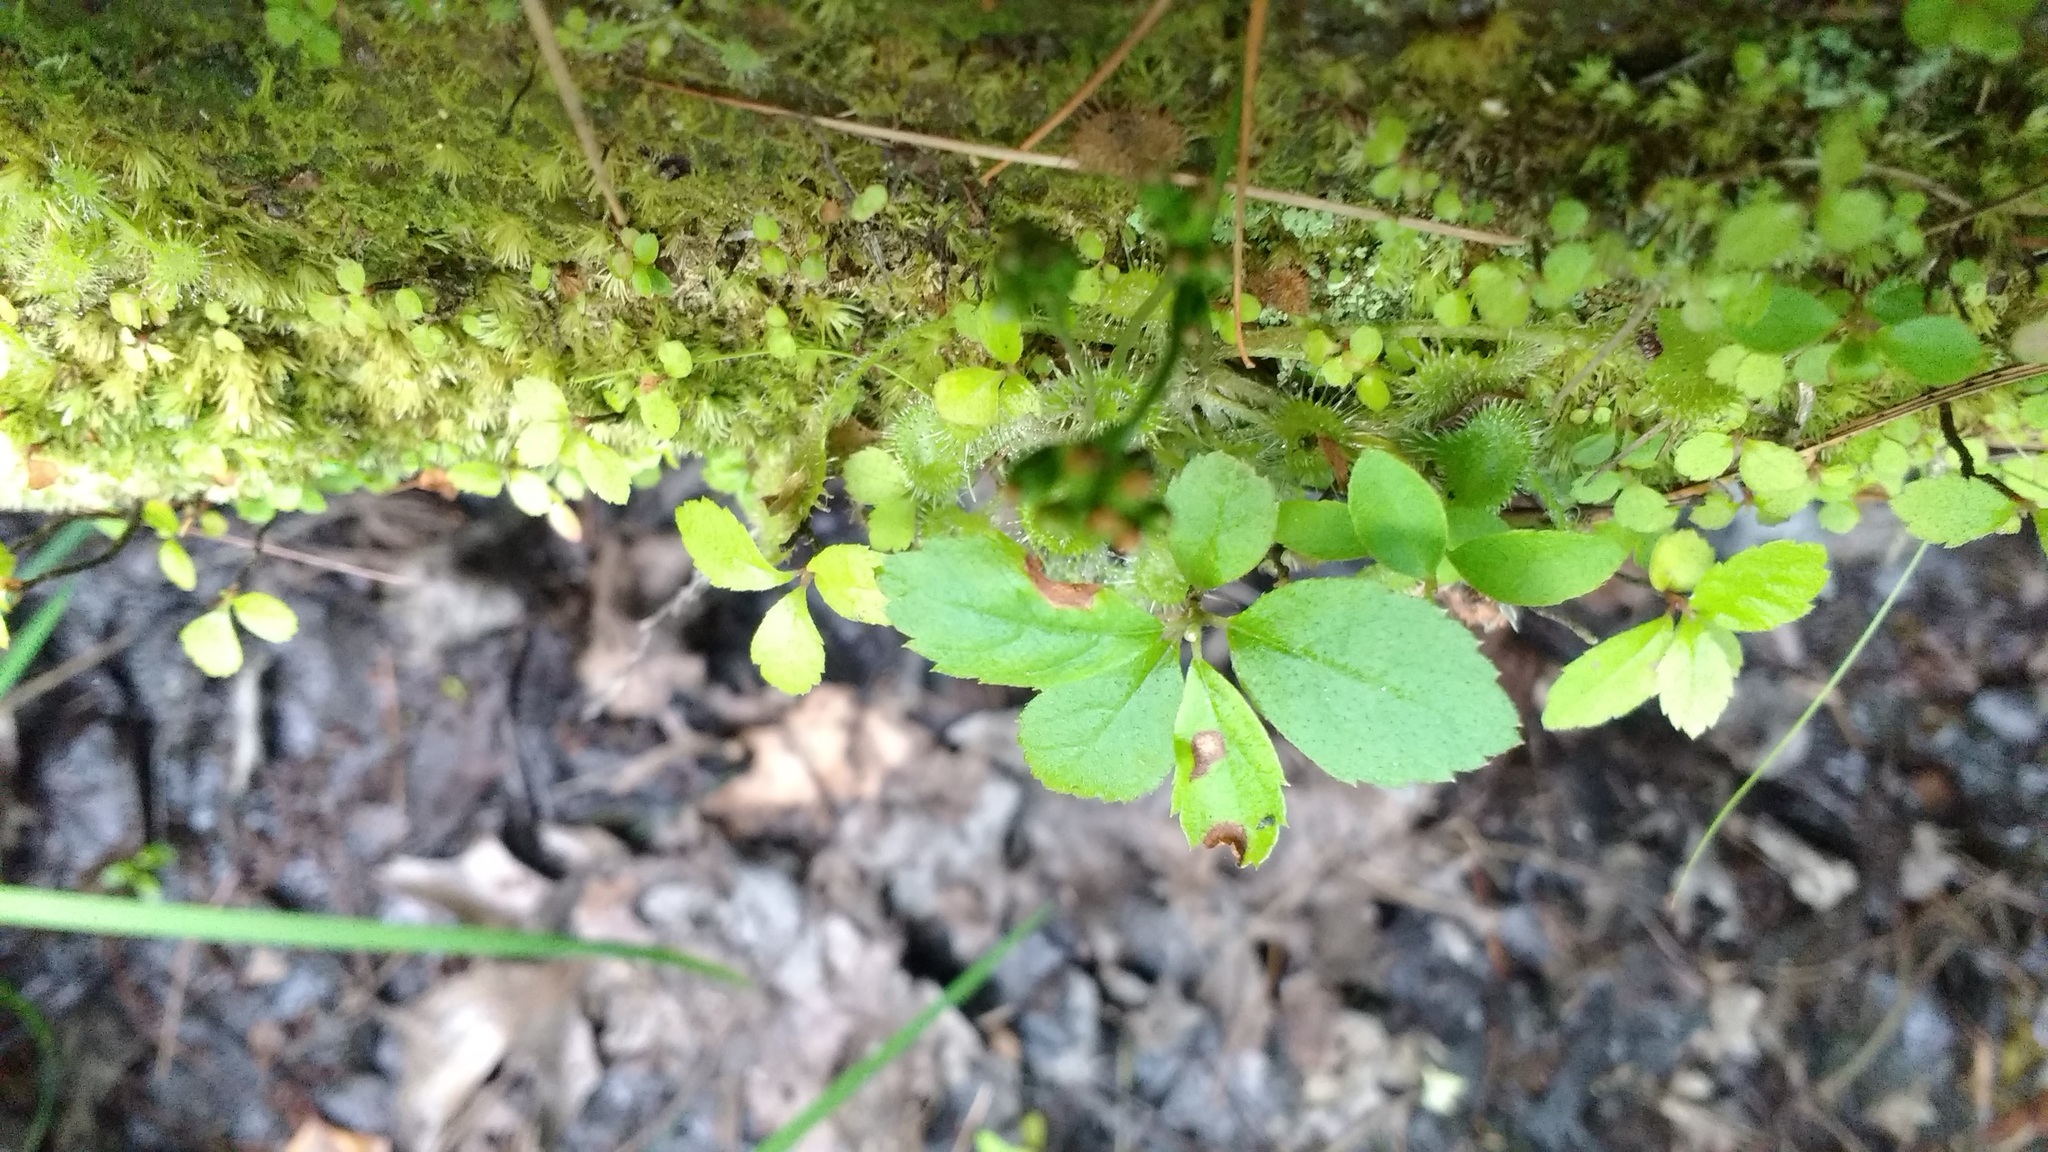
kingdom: Plantae
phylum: Tracheophyta
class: Magnoliopsida
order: Caryophyllales
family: Droseraceae
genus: Drosera
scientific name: Drosera rotundifolia
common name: Round-leaved sundew
